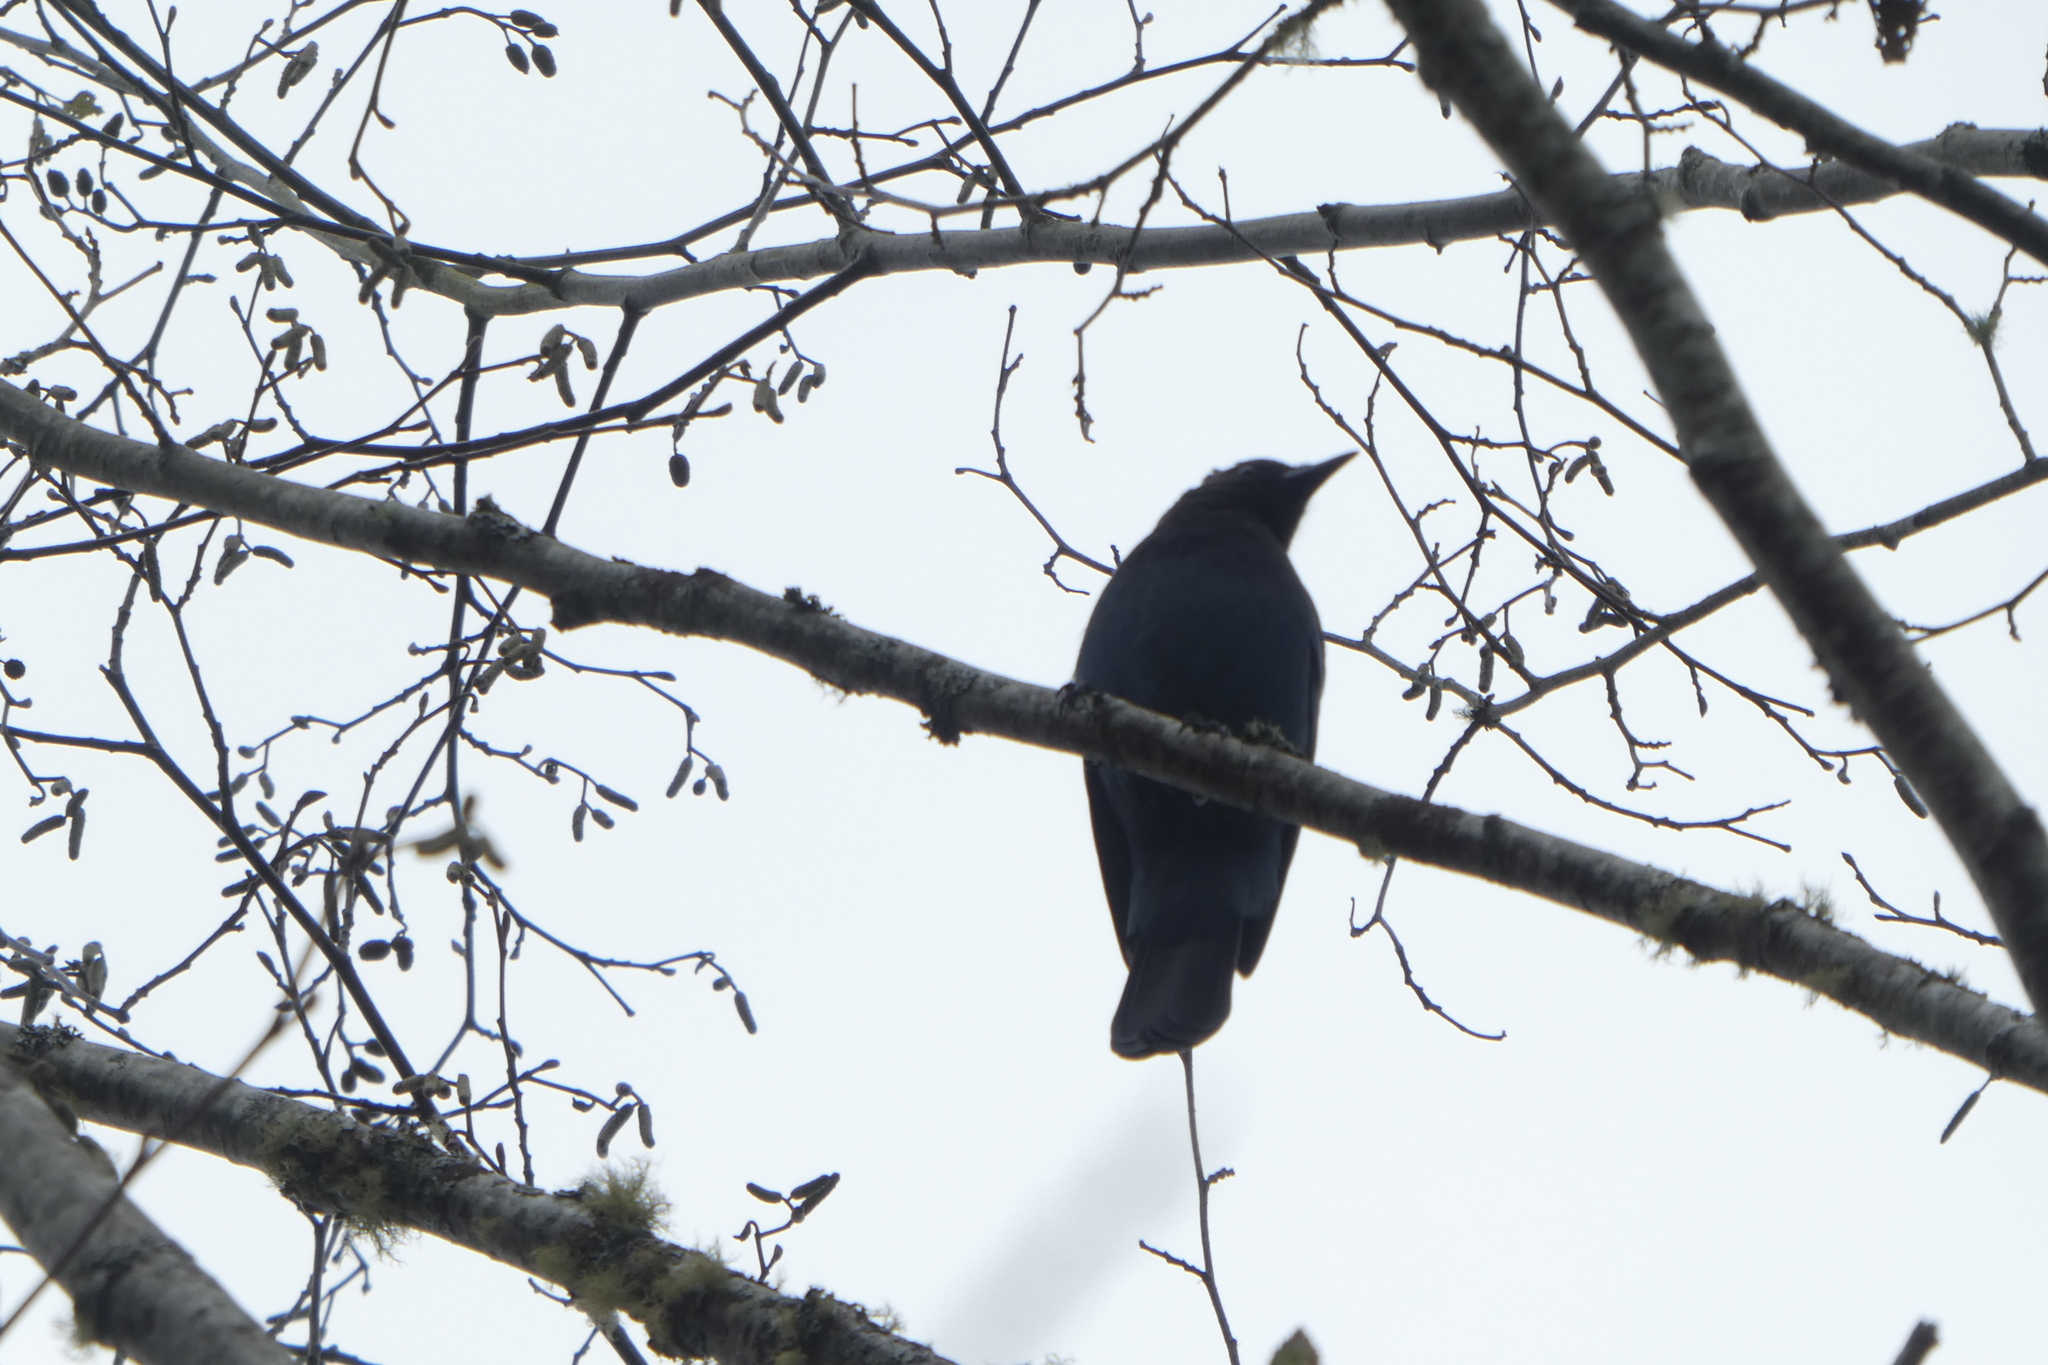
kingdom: Animalia
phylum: Chordata
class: Aves
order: Passeriformes
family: Corvidae
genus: Cyanocitta
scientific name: Cyanocitta stelleri
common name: Steller's jay
